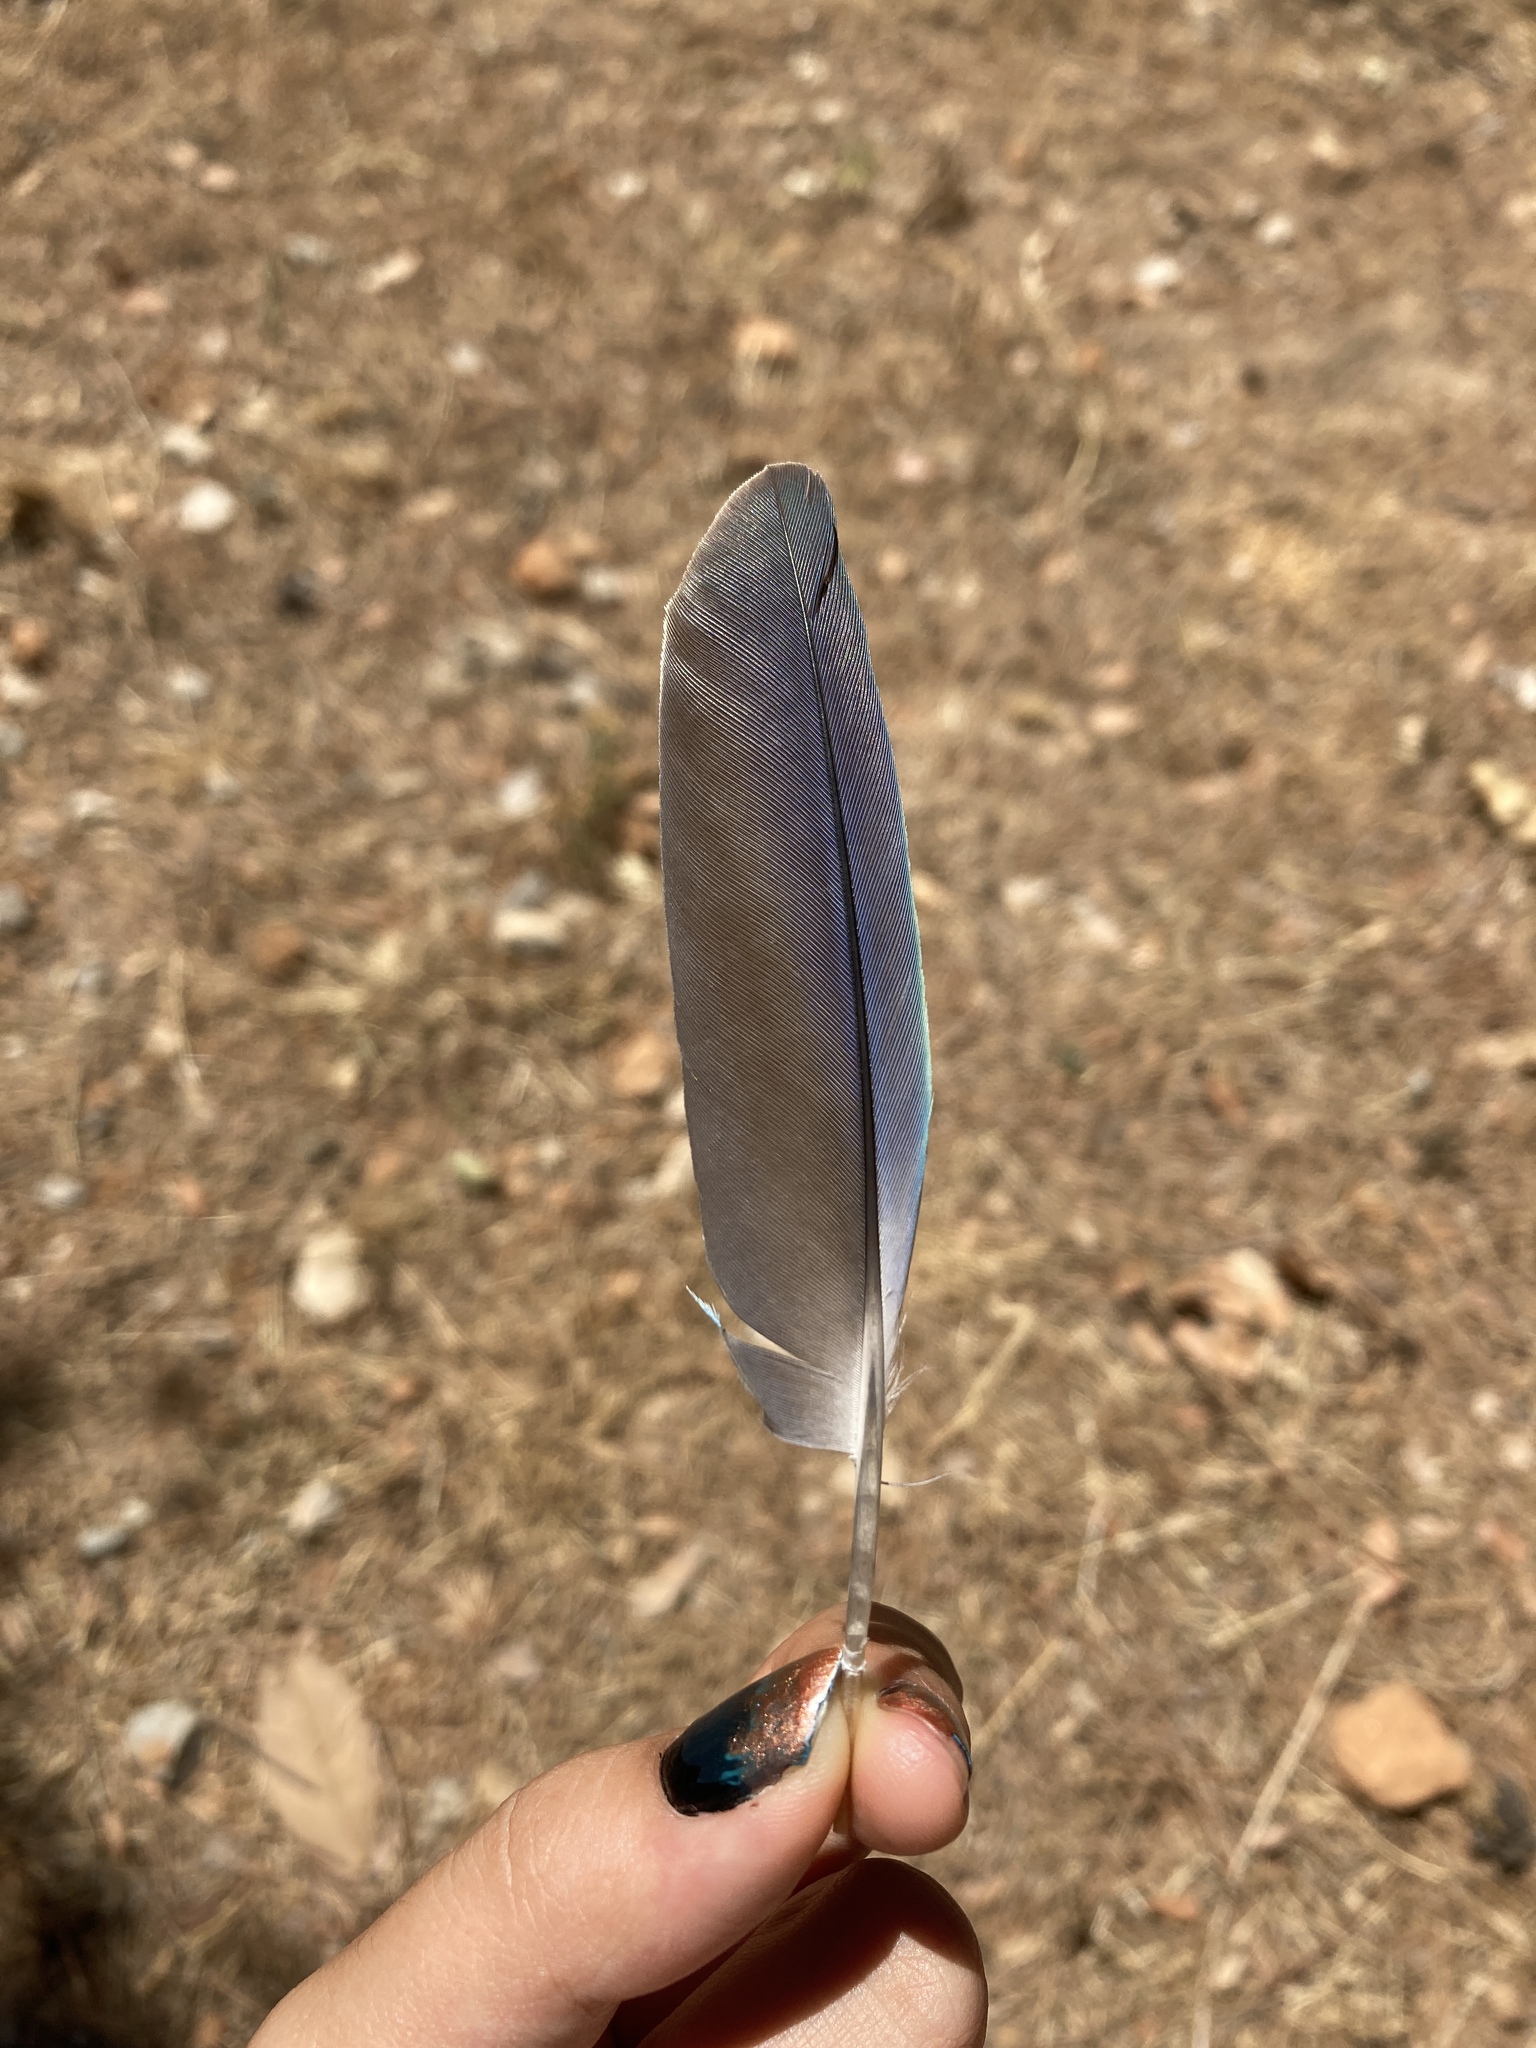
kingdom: Animalia
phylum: Chordata
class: Aves
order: Psittaciformes
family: Psittacidae
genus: Myiopsitta
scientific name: Myiopsitta monachus
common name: Monk parakeet
